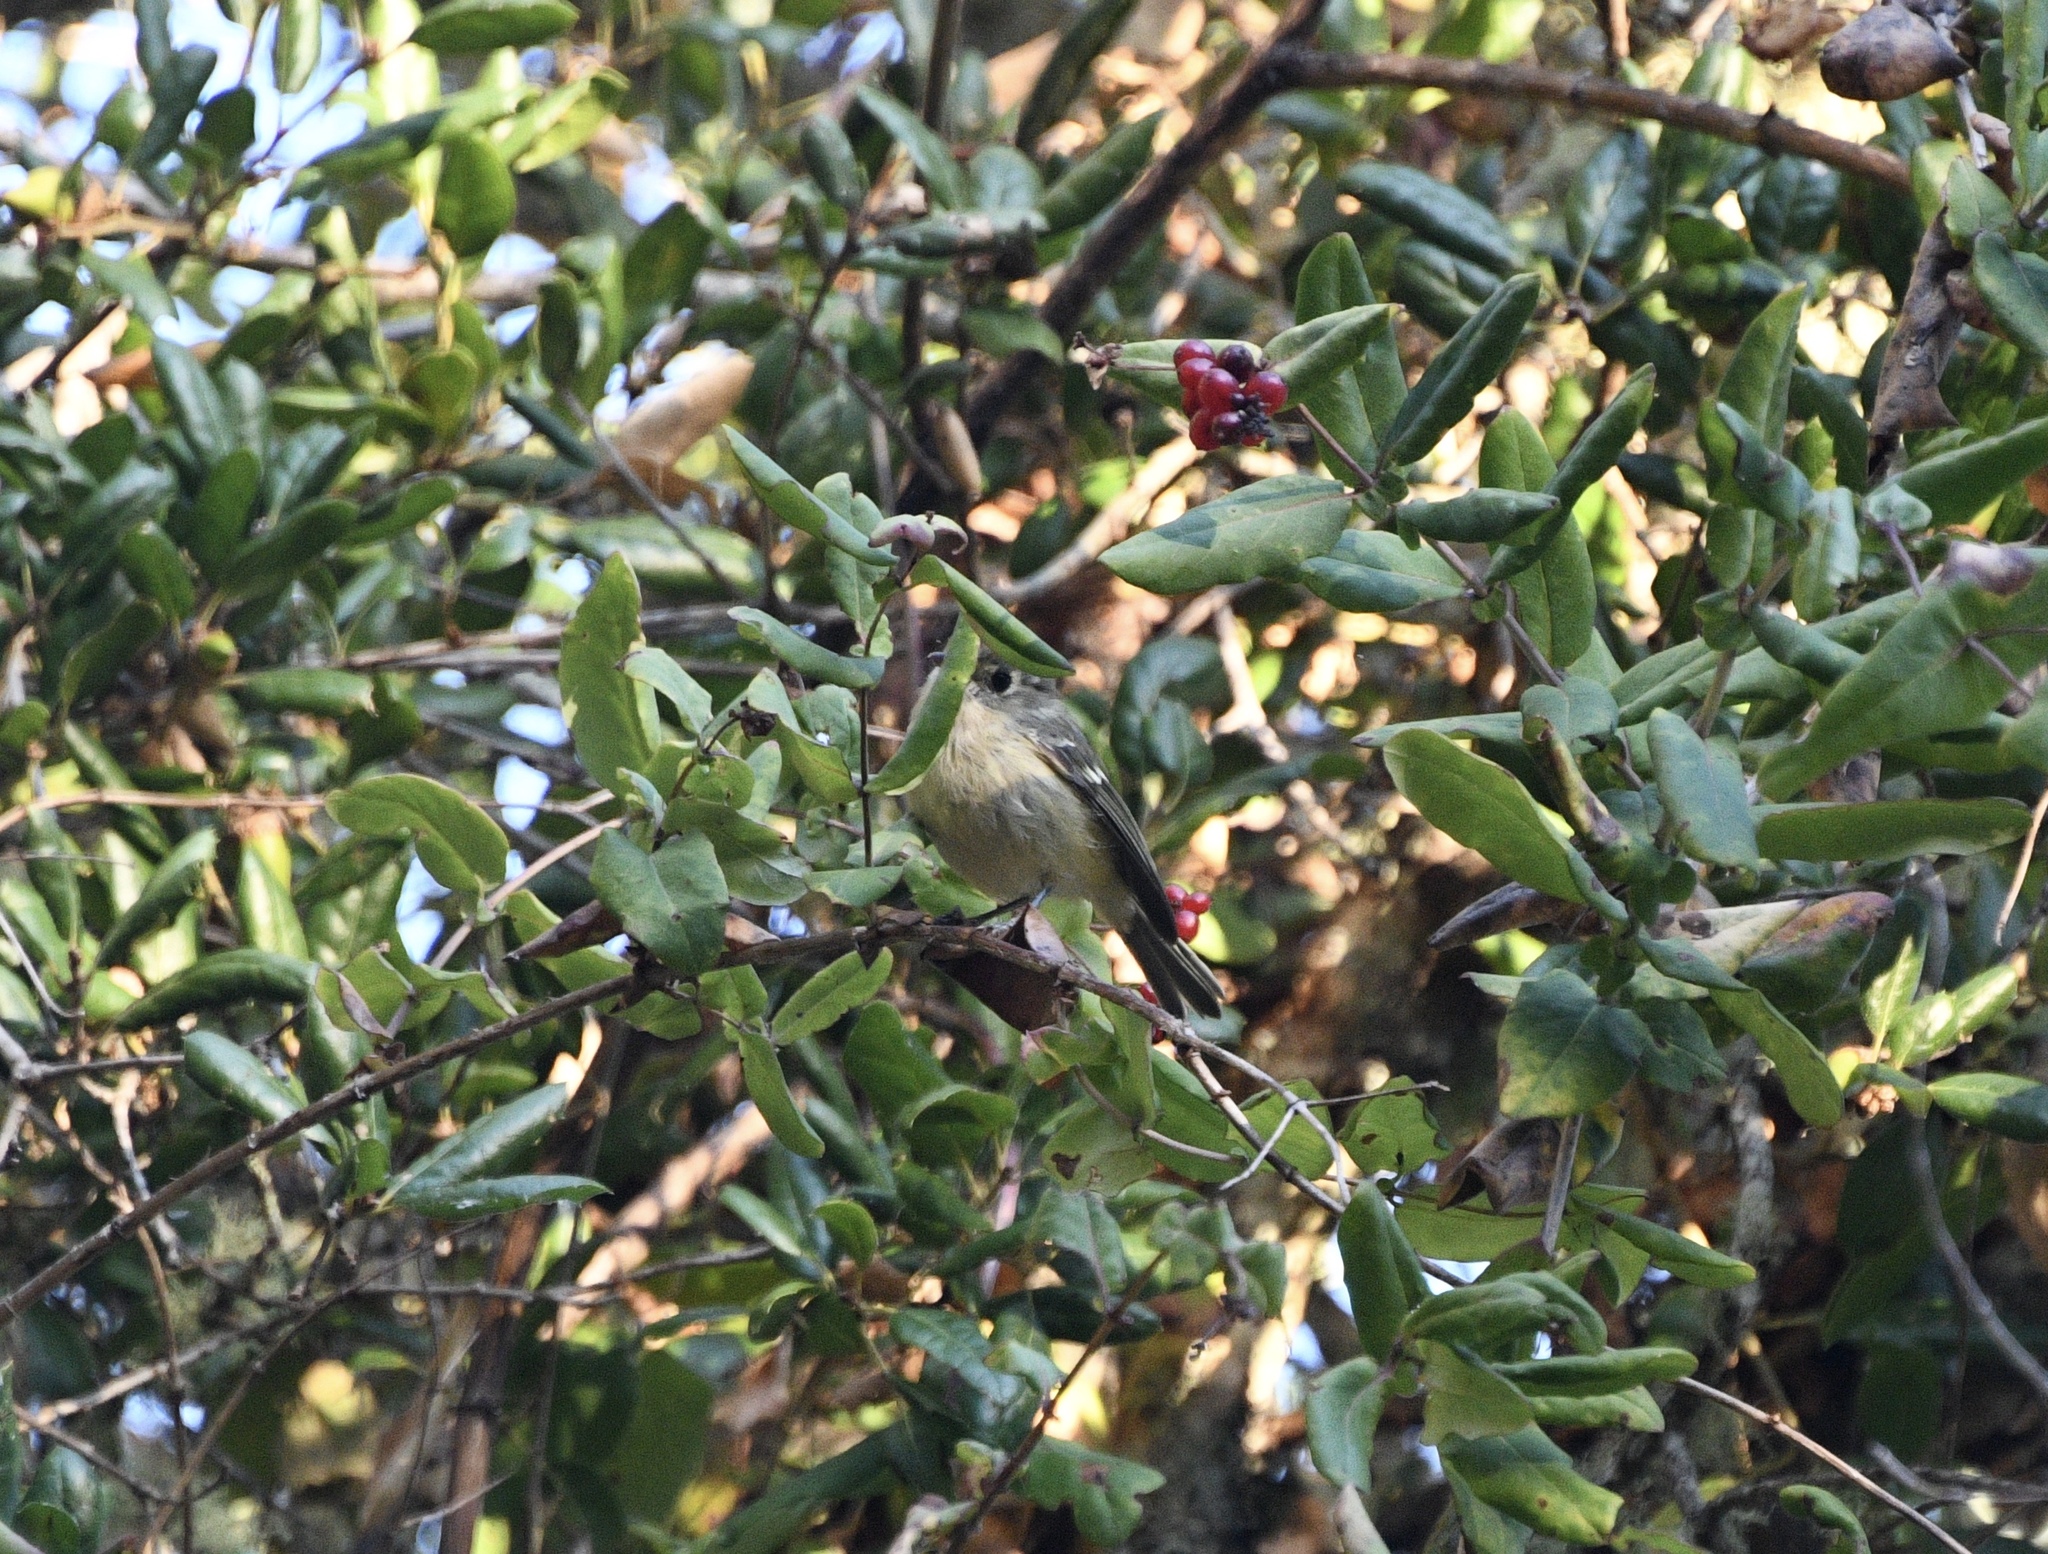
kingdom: Animalia
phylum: Chordata
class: Aves
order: Passeriformes
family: Vireonidae
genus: Vireo
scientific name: Vireo huttoni
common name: Hutton's vireo
